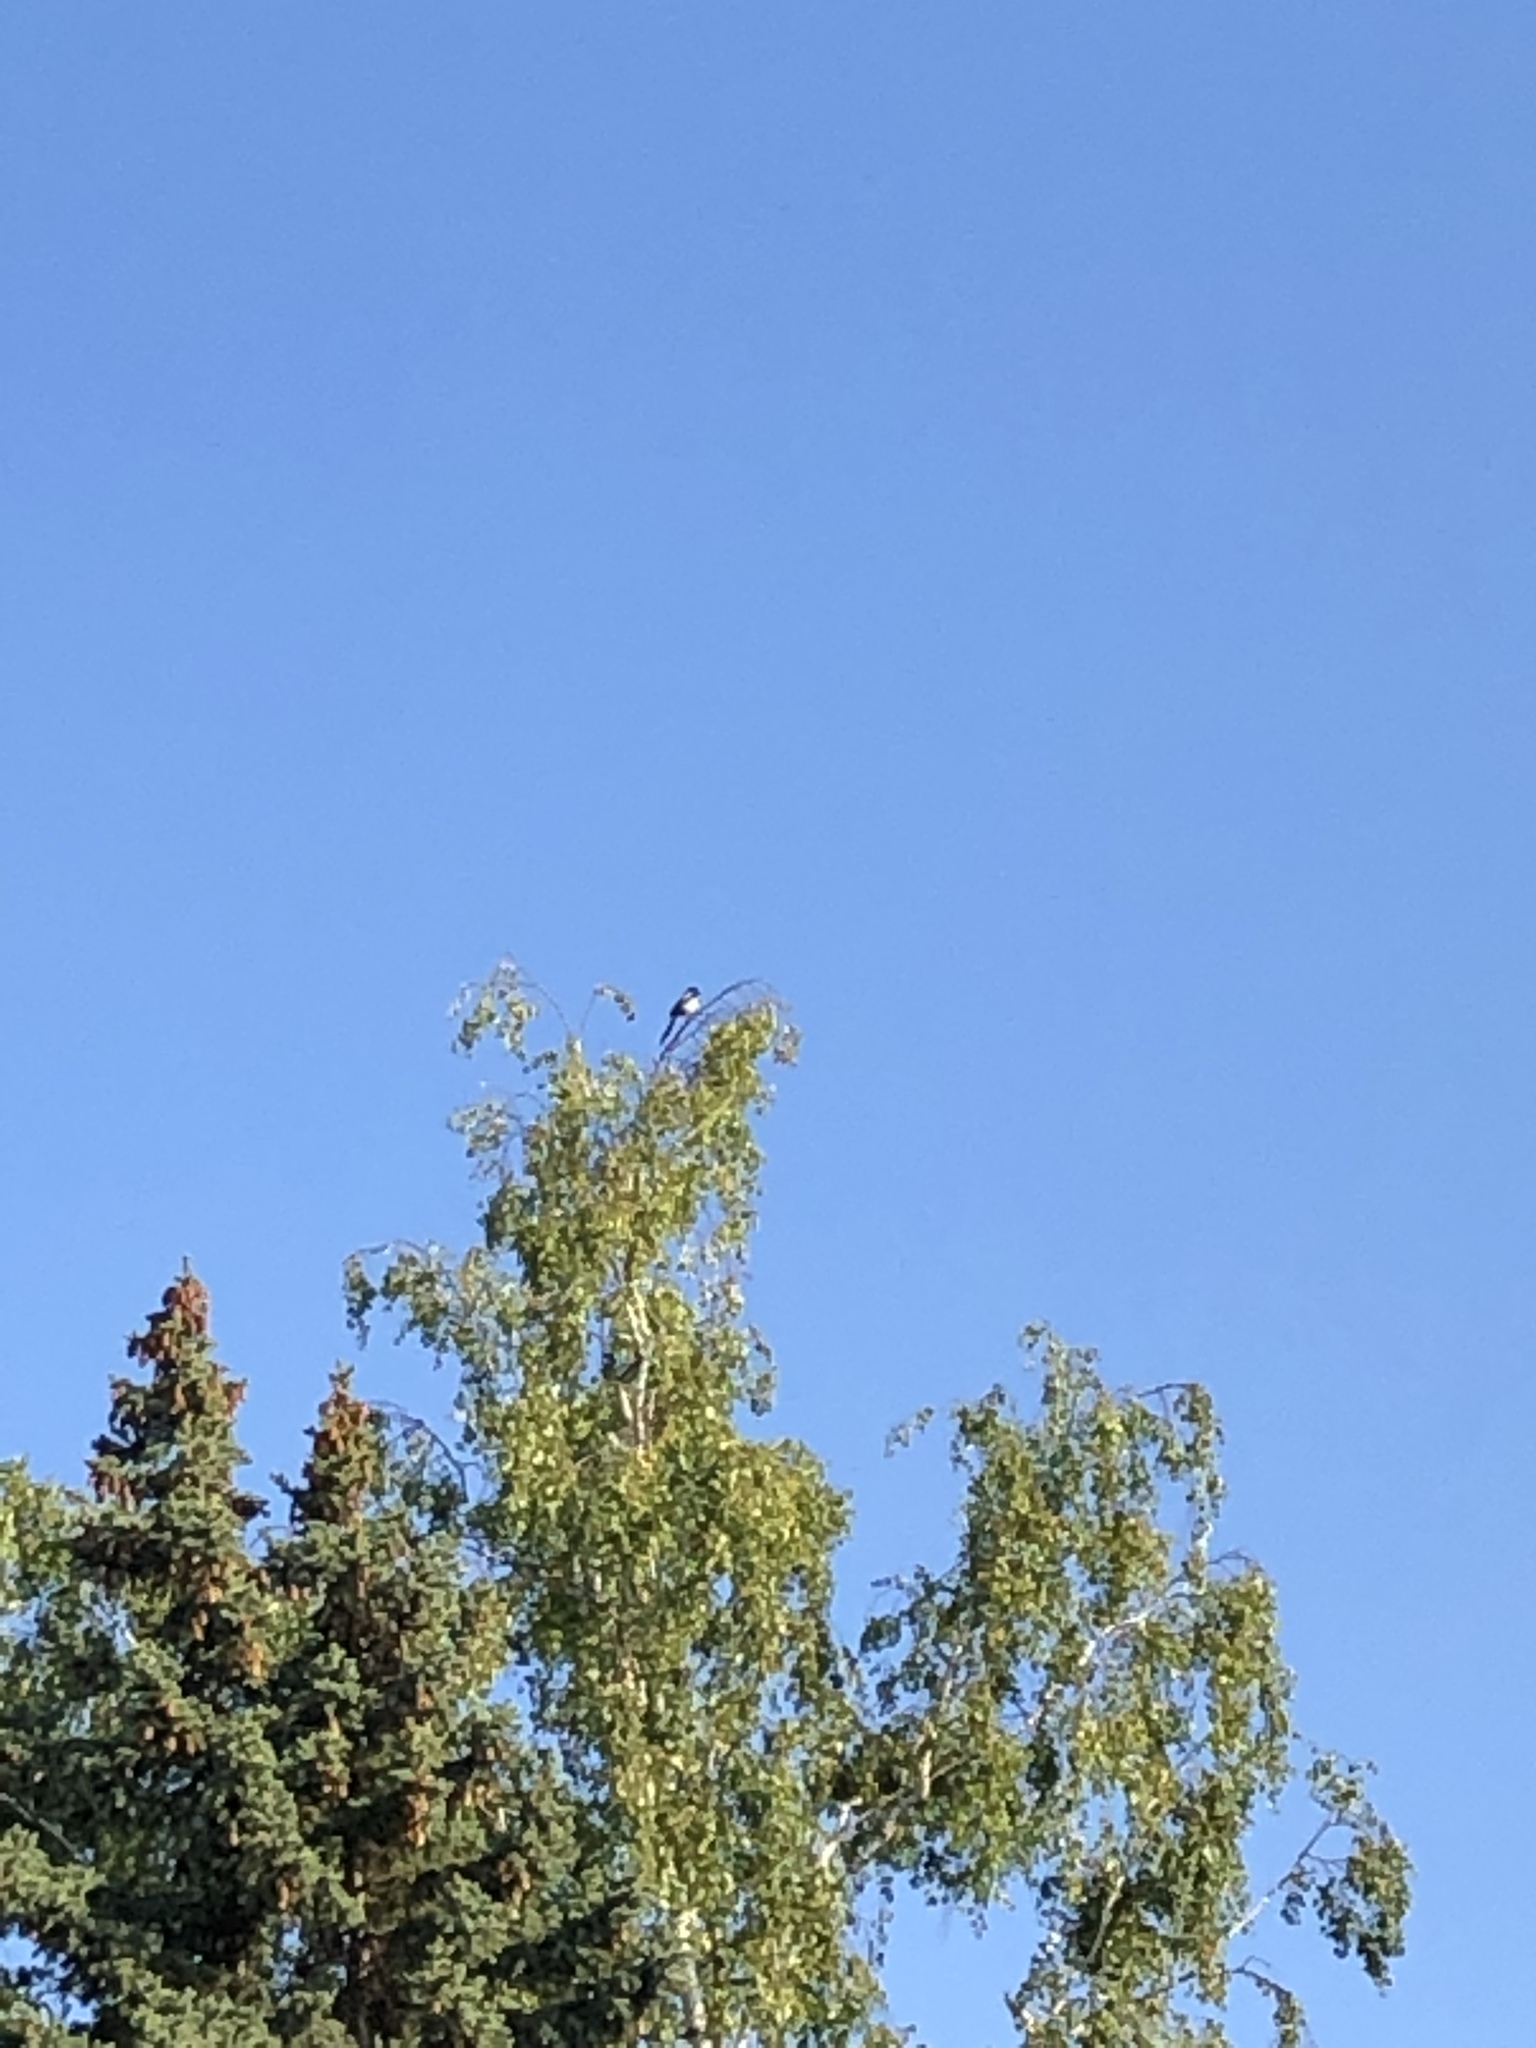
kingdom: Animalia
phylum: Chordata
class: Aves
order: Passeriformes
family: Corvidae
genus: Pica
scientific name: Pica pica
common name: Eurasian magpie
